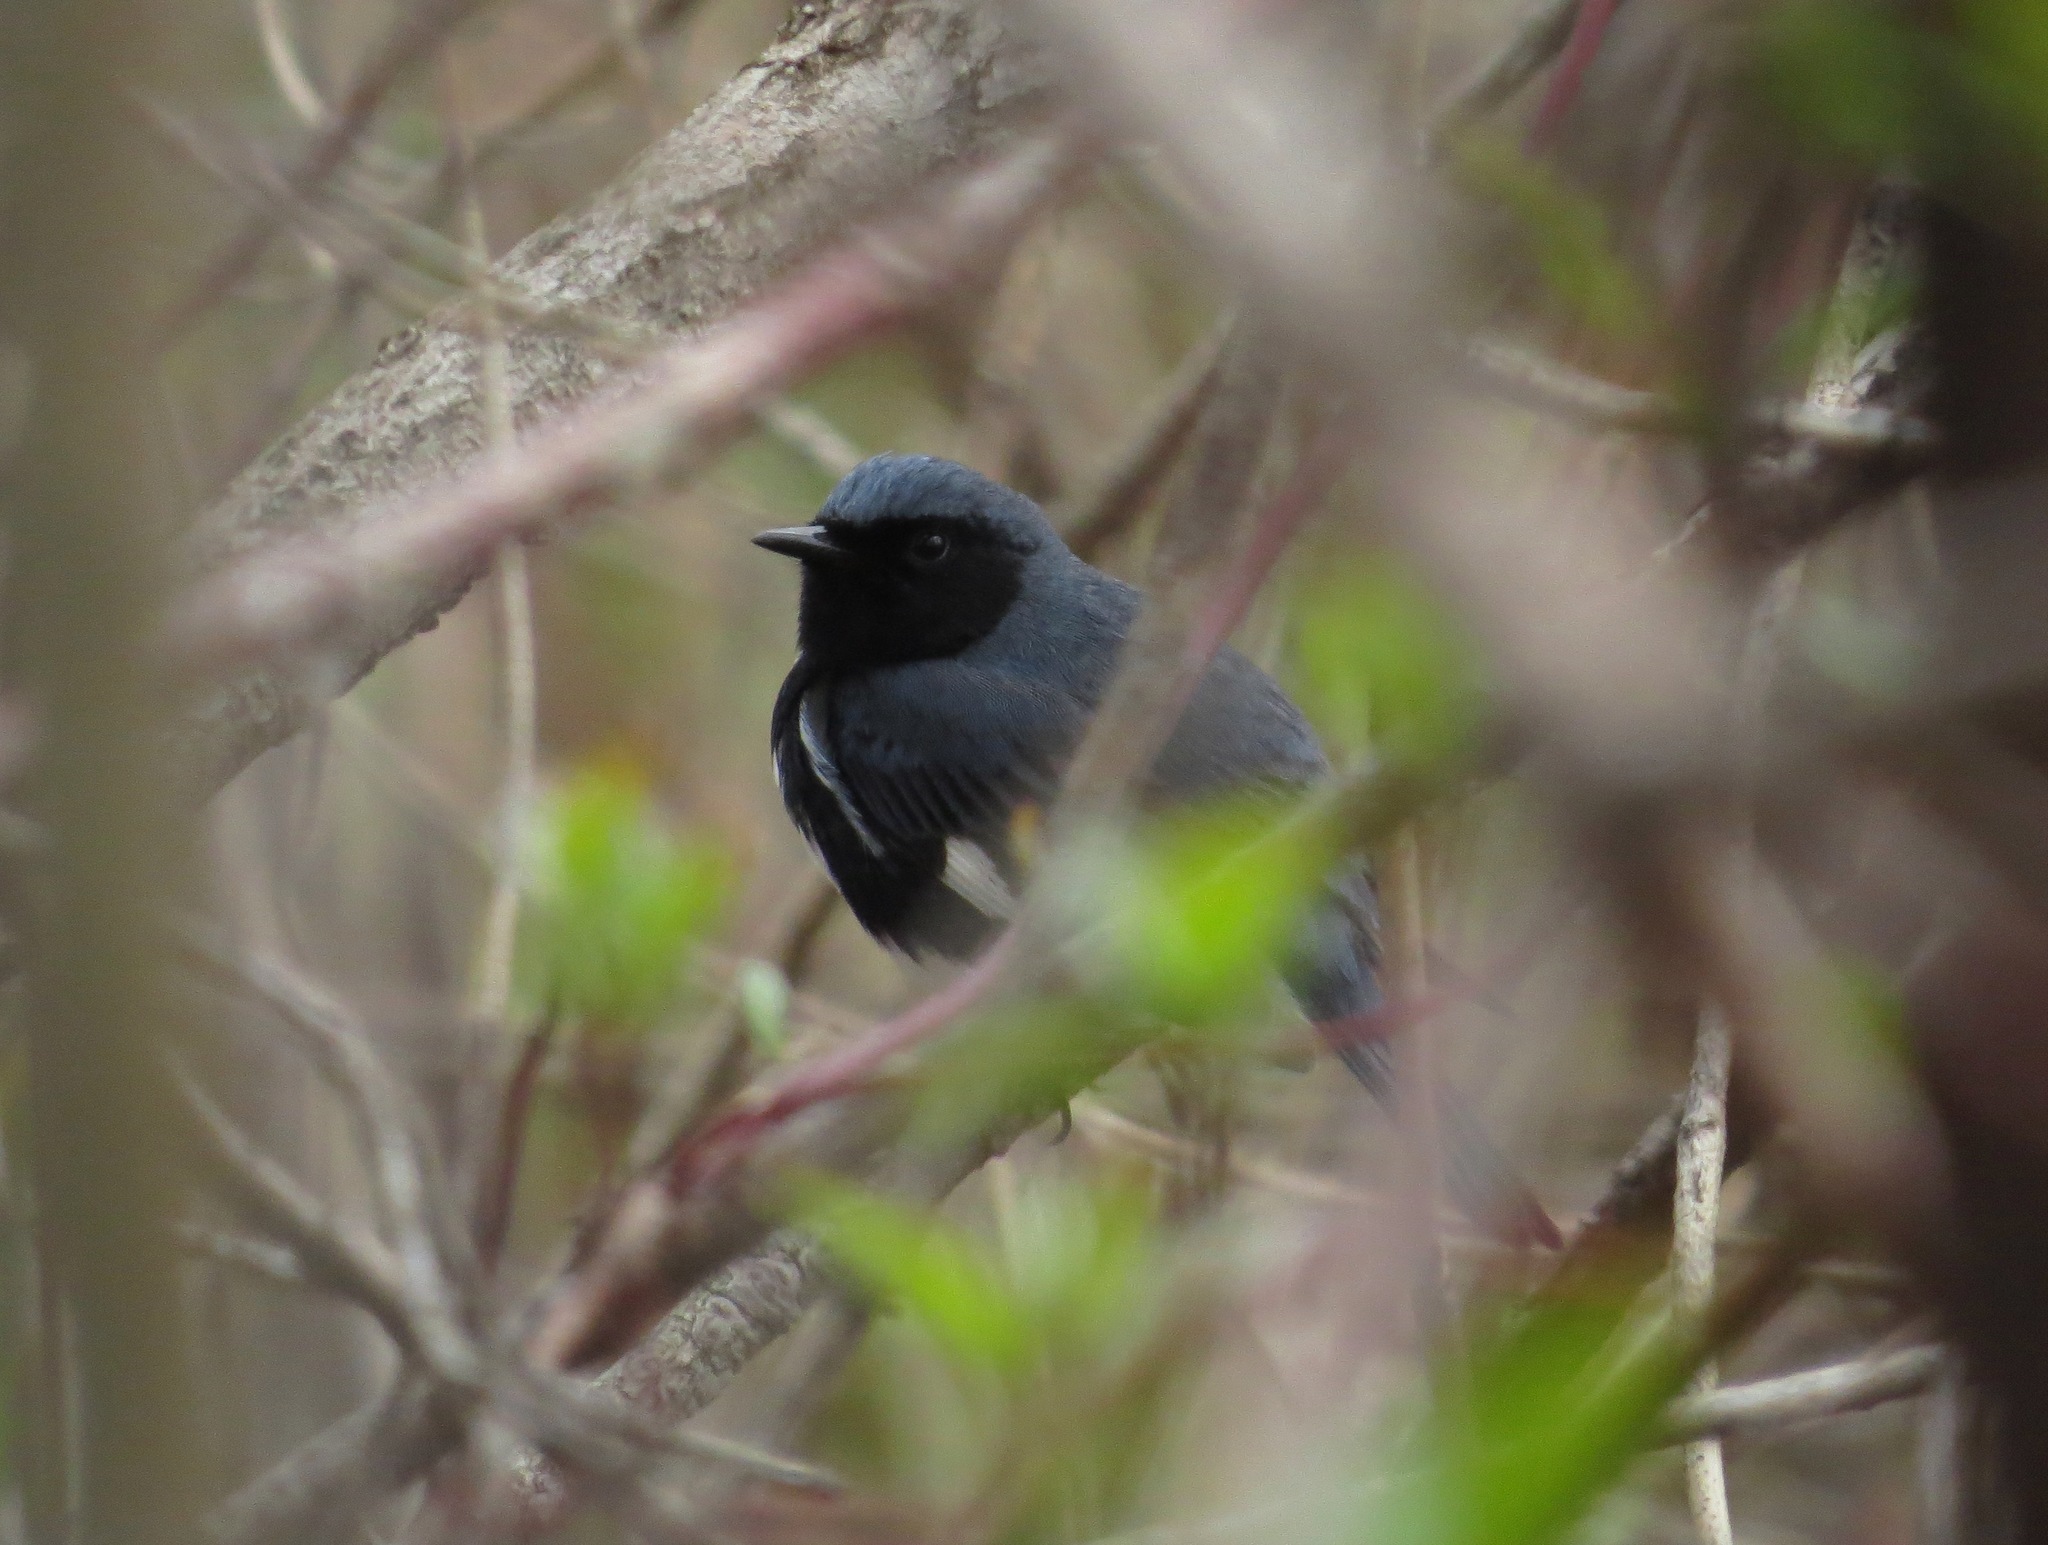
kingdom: Animalia
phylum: Chordata
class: Aves
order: Passeriformes
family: Parulidae
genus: Setophaga
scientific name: Setophaga caerulescens
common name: Black-throated blue warbler
